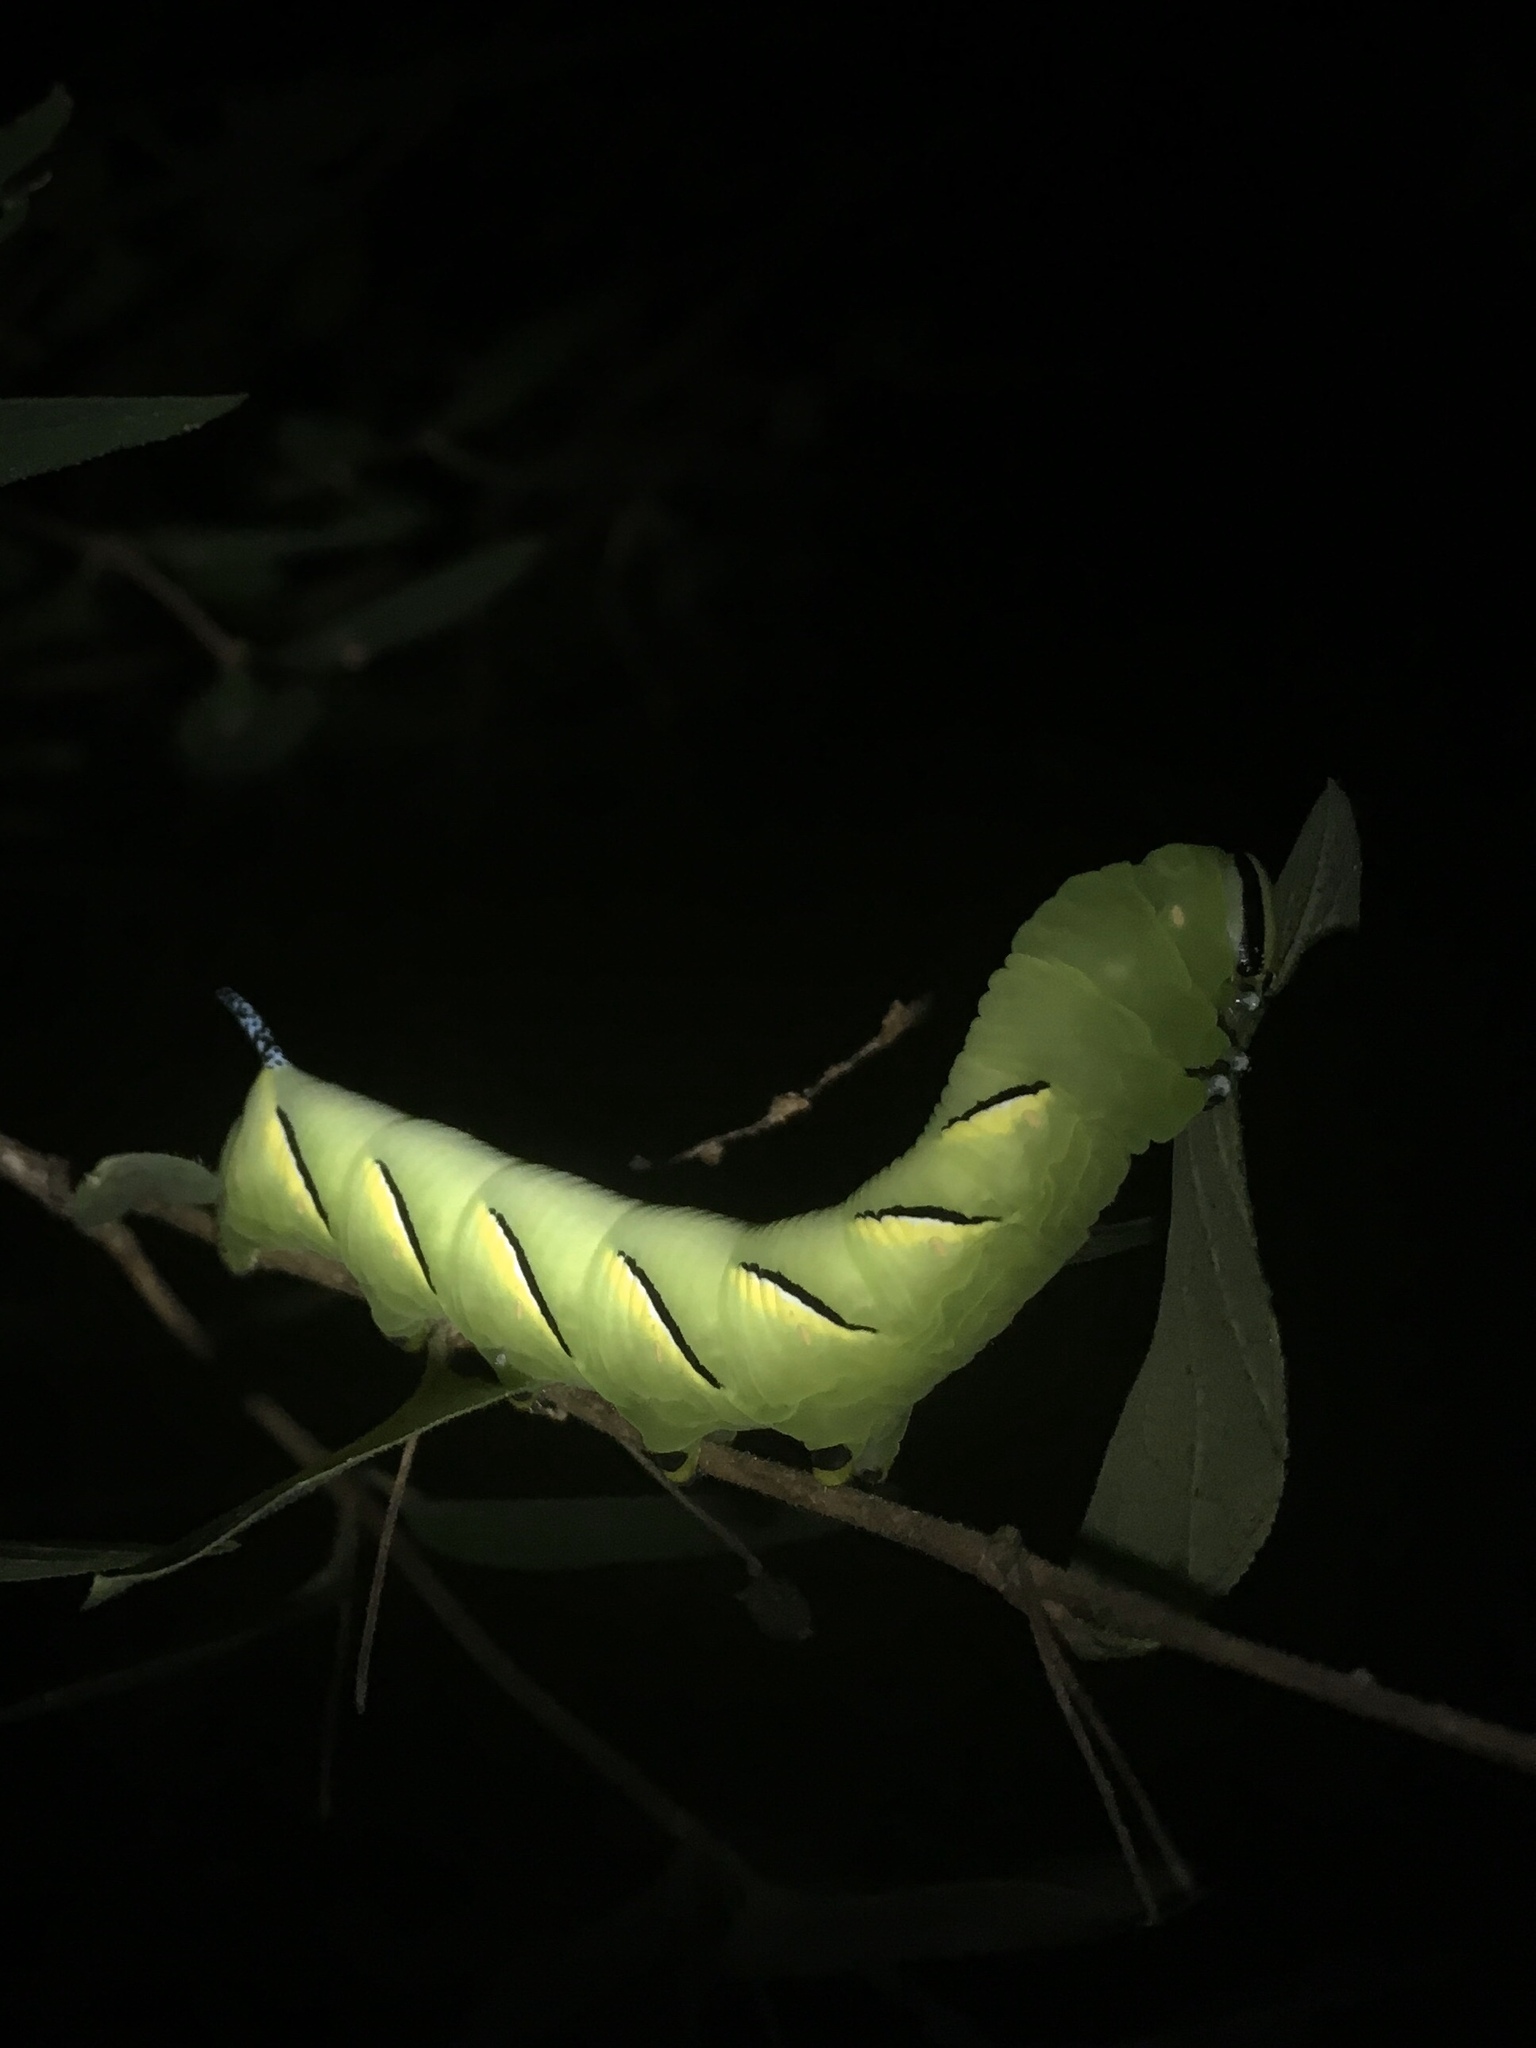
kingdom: Animalia
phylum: Arthropoda
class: Insecta
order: Lepidoptera
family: Sphingidae
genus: Sphinx
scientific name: Sphinx kalmiae
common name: Laurel sphinx
